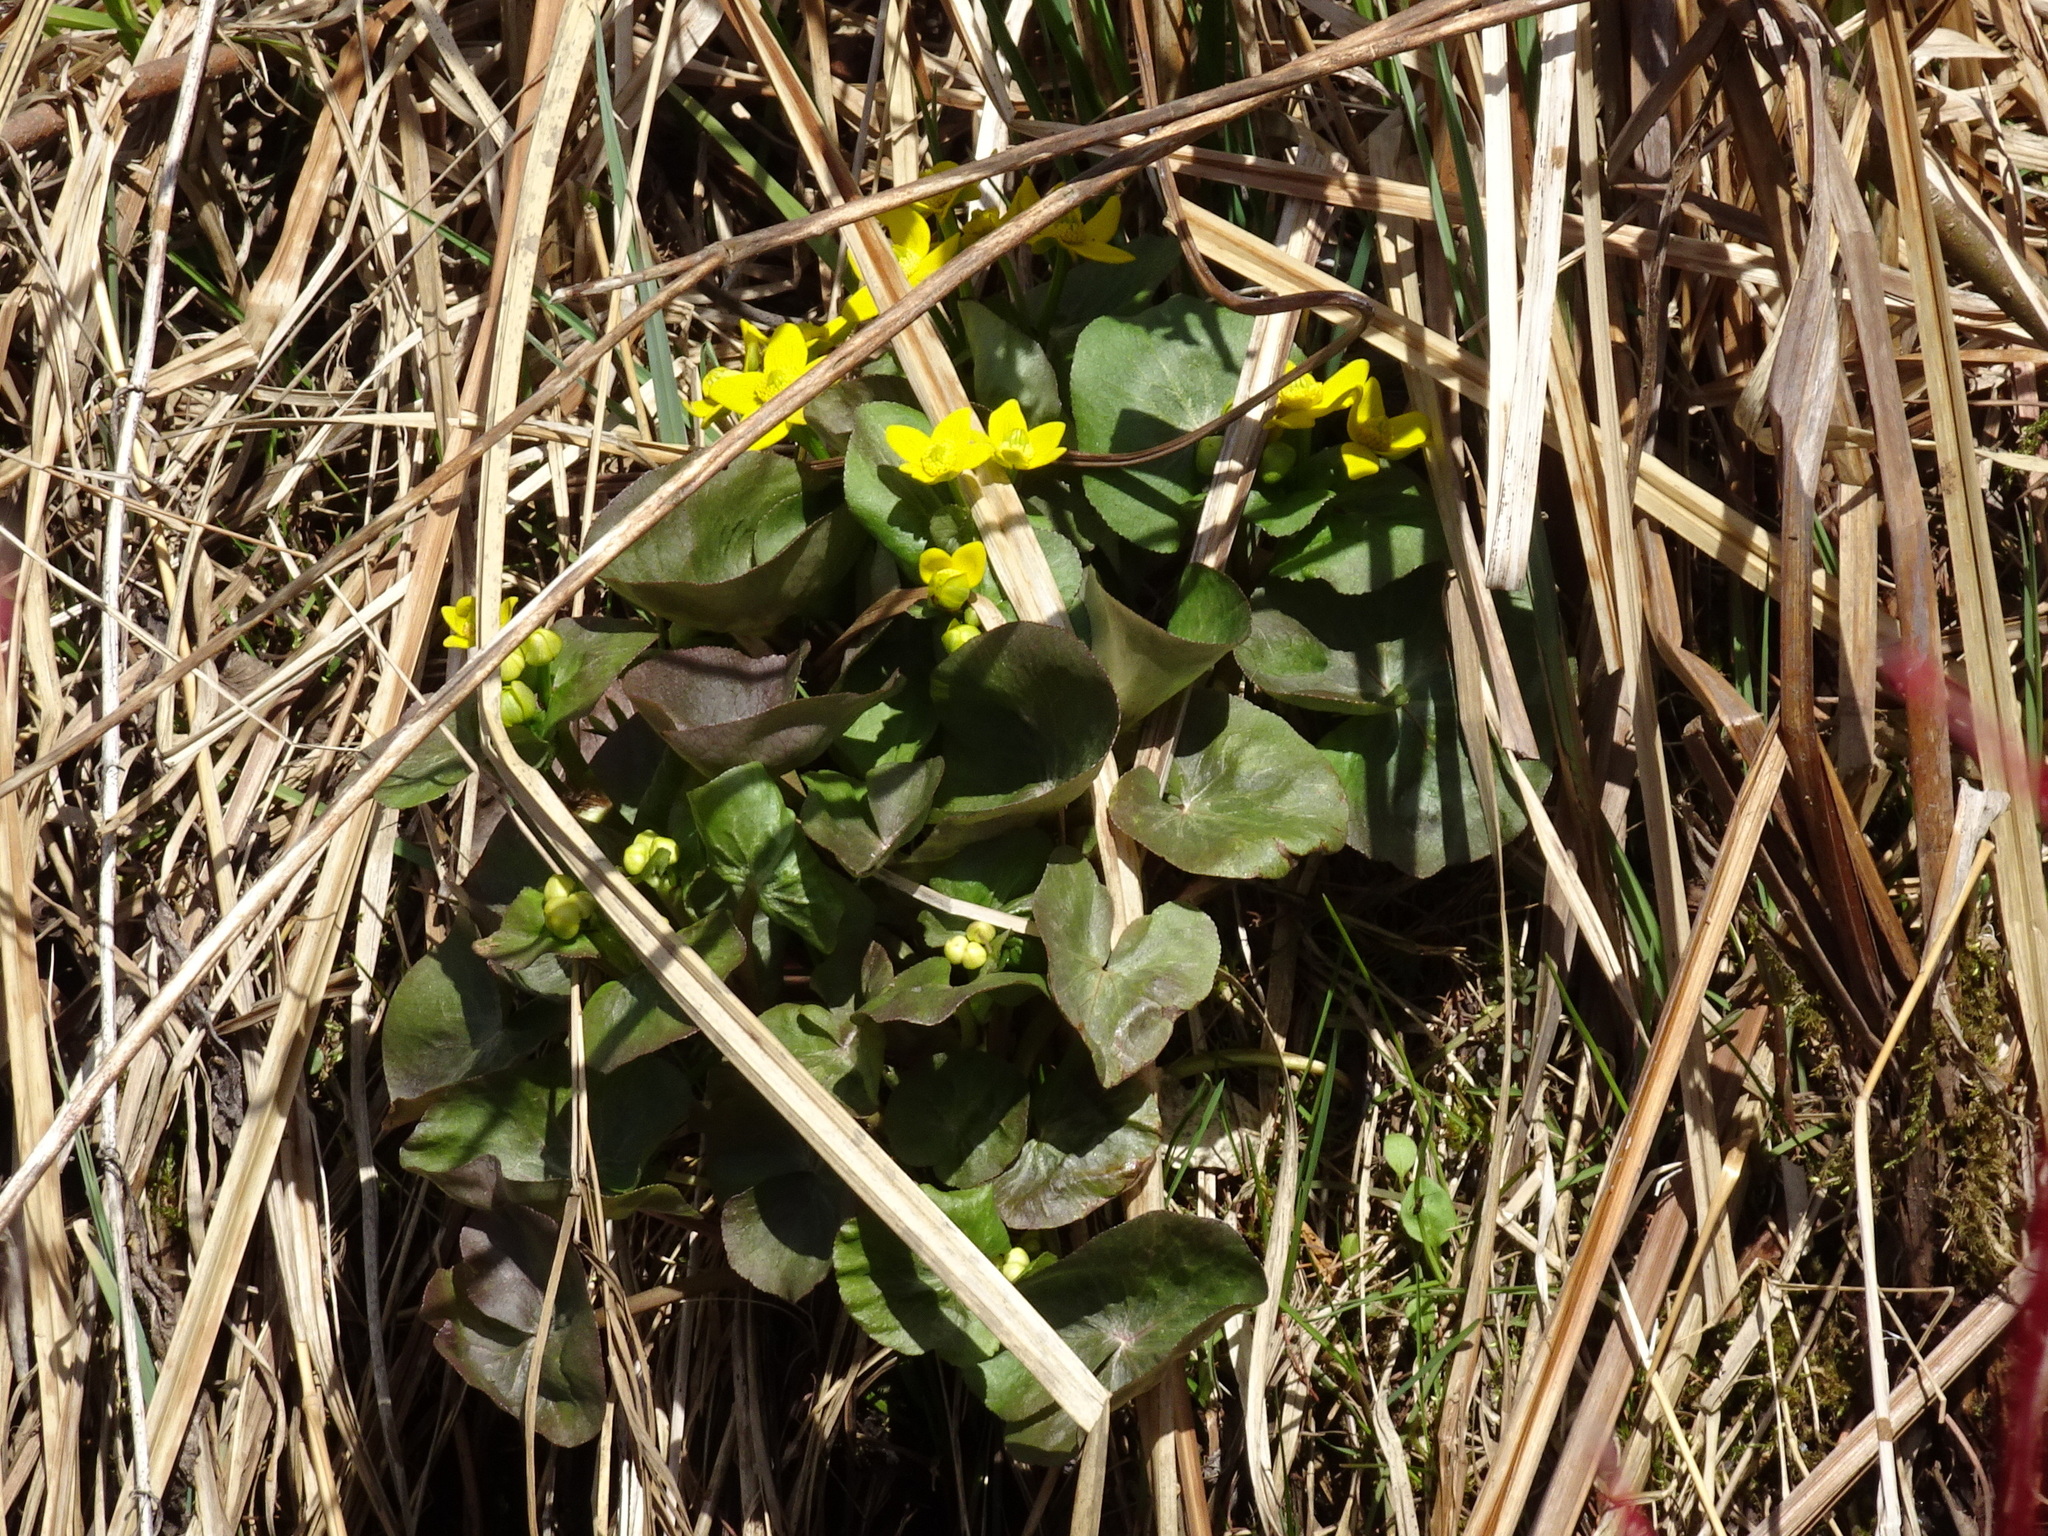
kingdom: Plantae
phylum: Tracheophyta
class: Magnoliopsida
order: Ranunculales
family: Ranunculaceae
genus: Caltha
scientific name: Caltha palustris
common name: Marsh marigold
